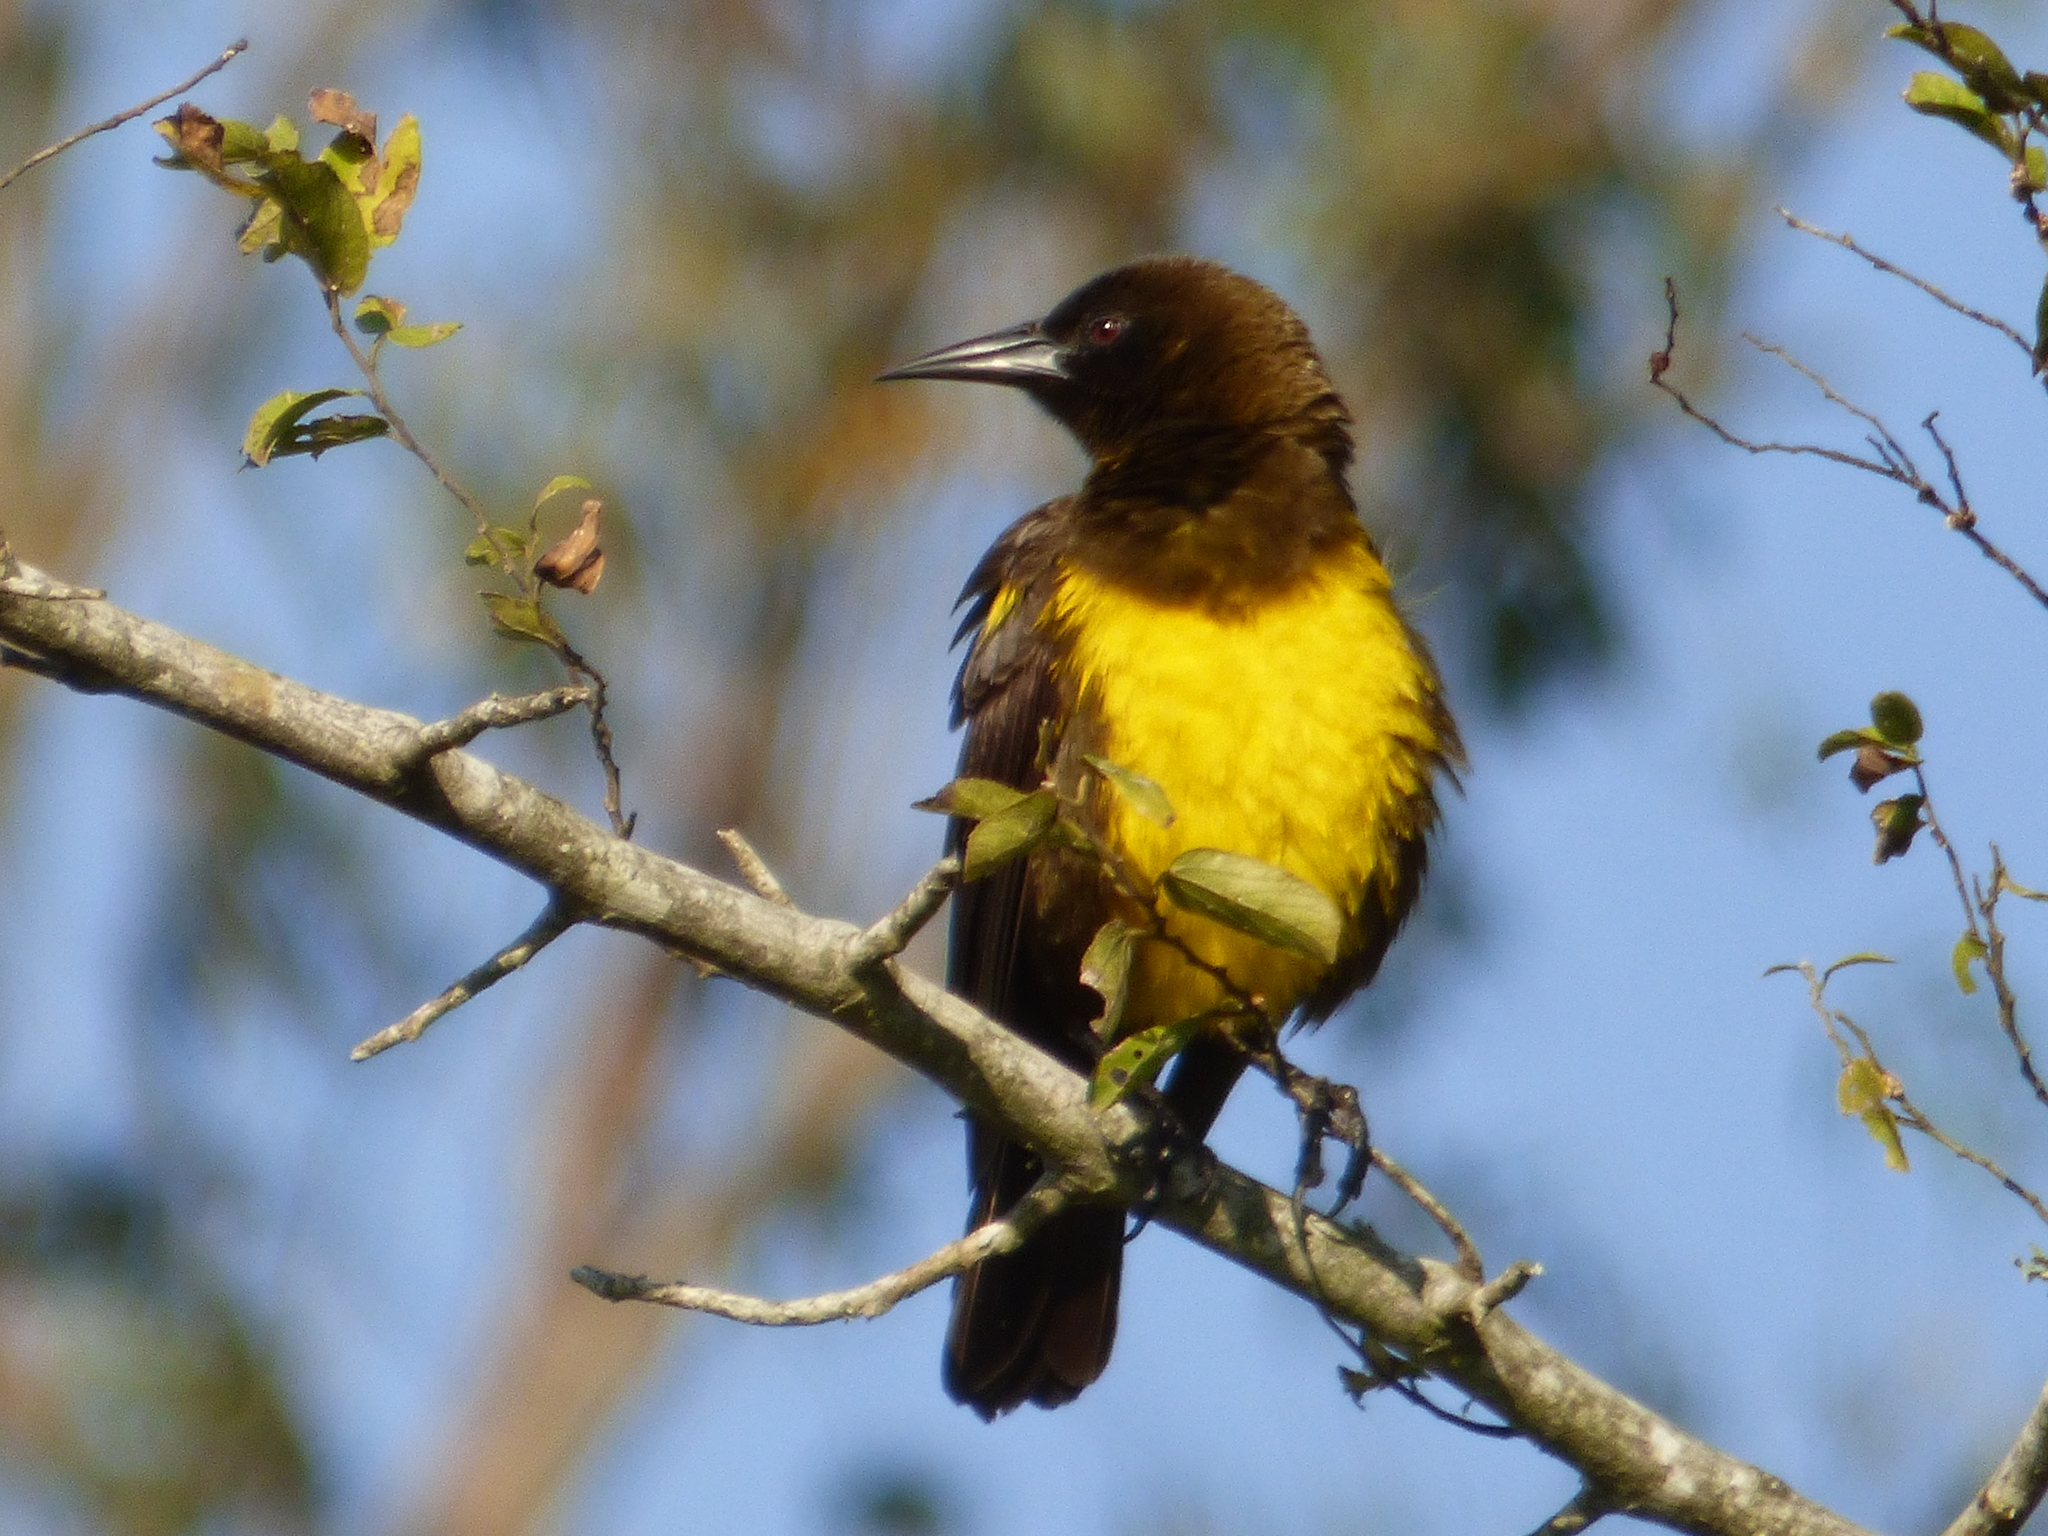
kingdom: Animalia
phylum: Chordata
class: Aves
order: Passeriformes
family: Icteridae
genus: Pseudoleistes
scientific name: Pseudoleistes virescens
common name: Brown-and-yellow marshbird
